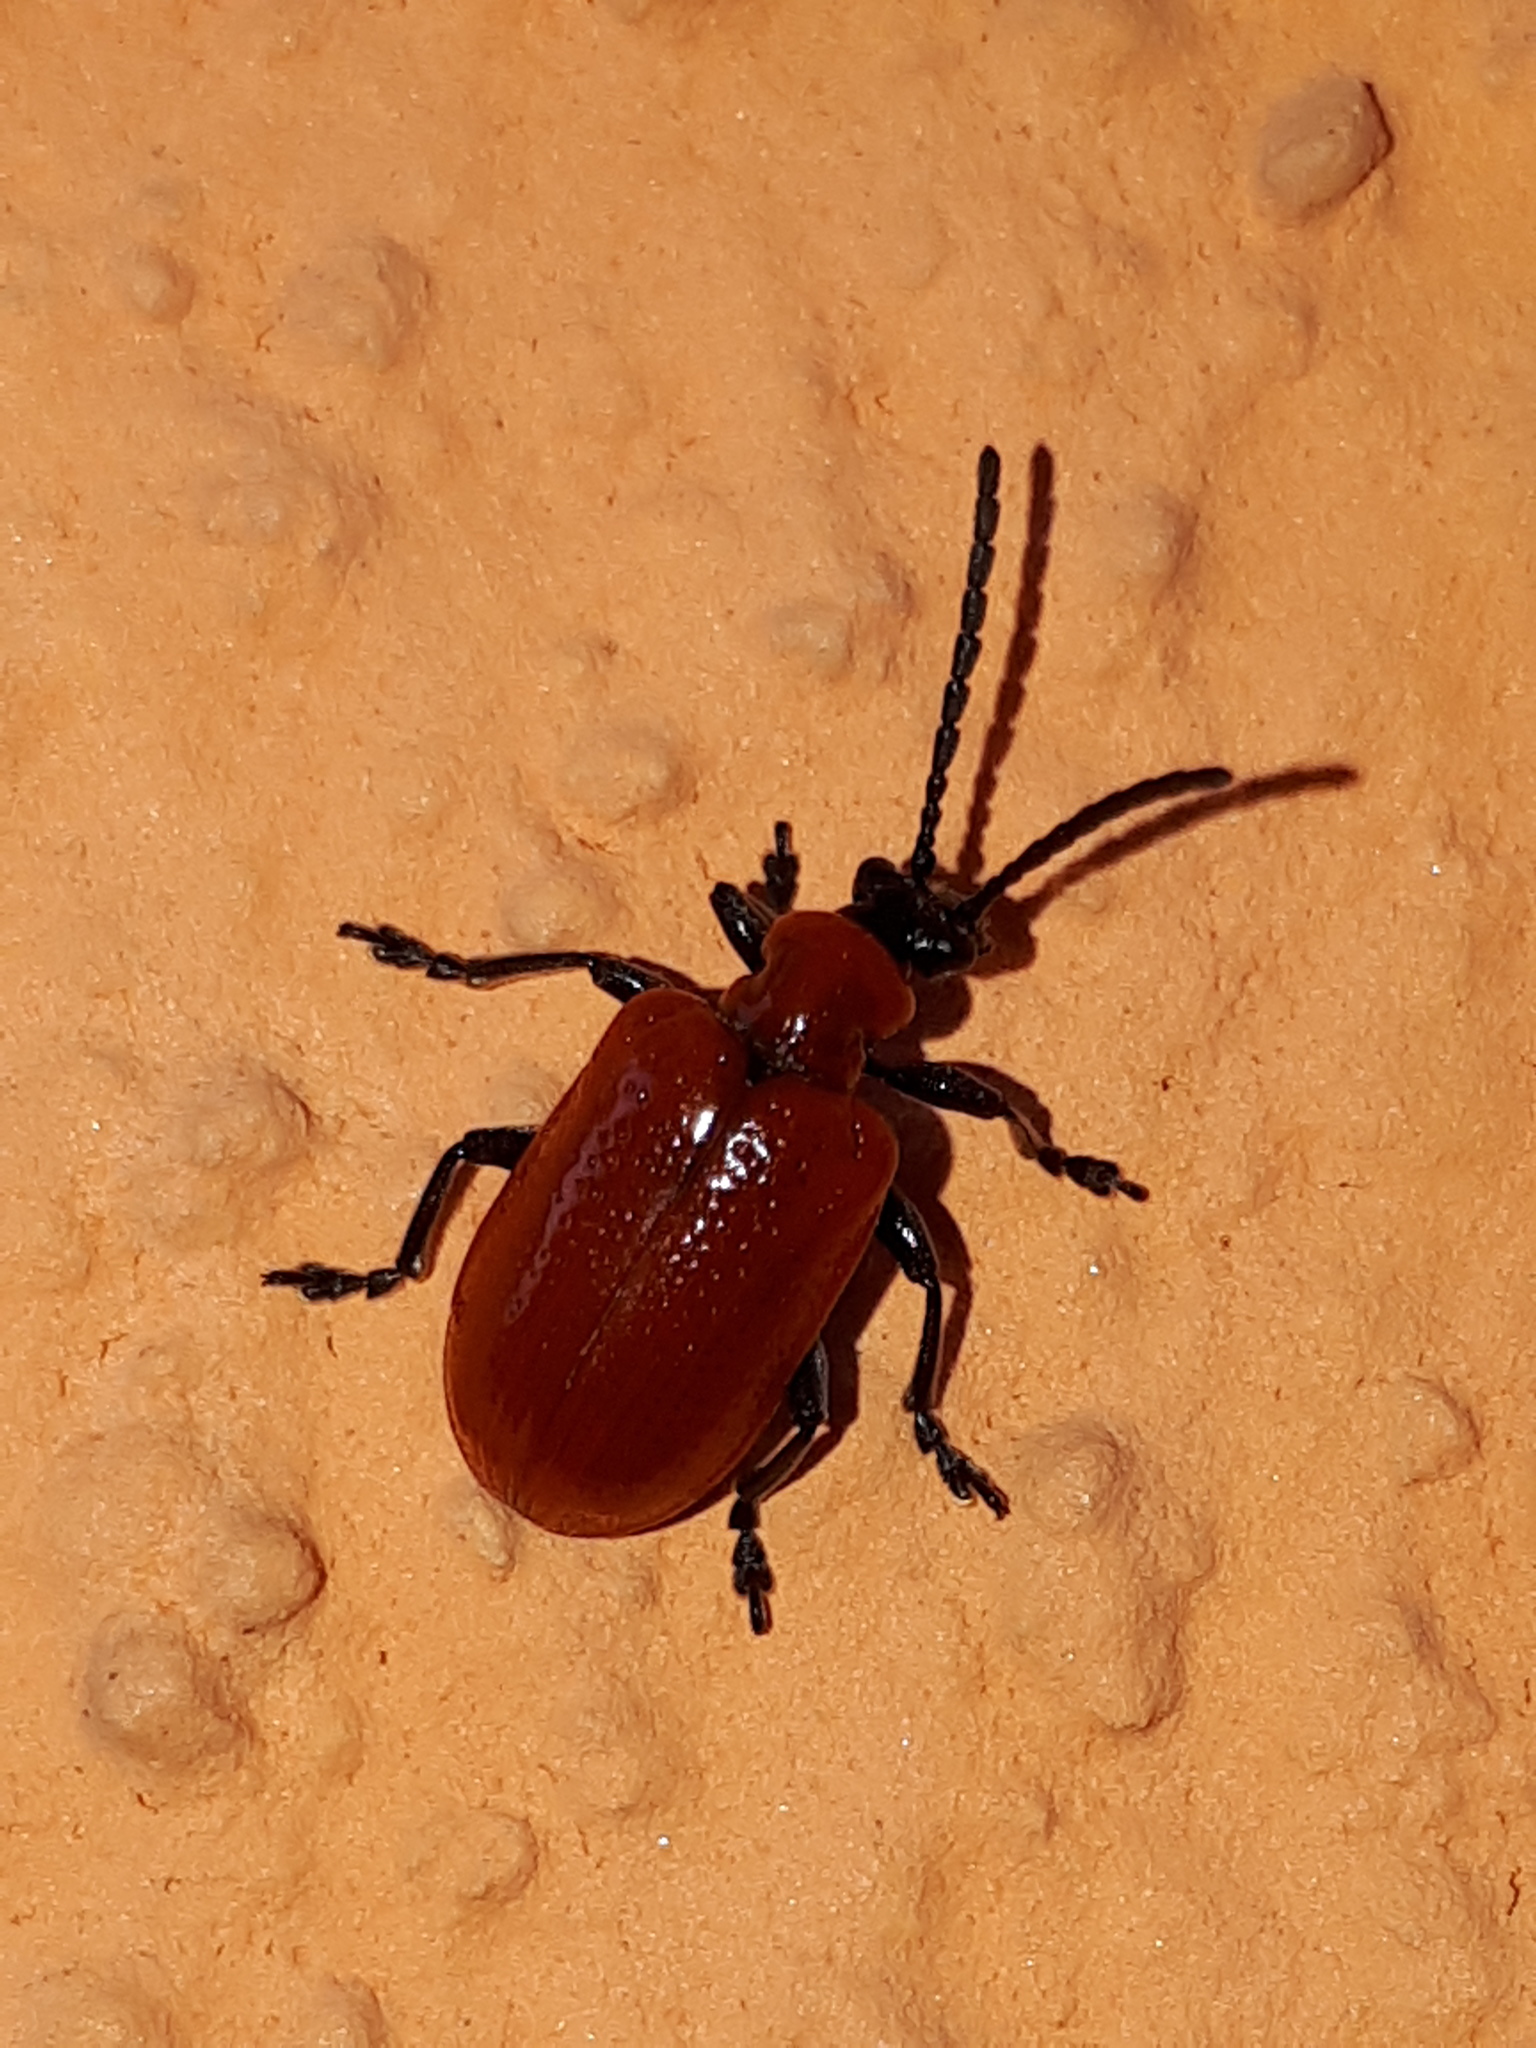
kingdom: Animalia
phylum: Arthropoda
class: Insecta
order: Coleoptera
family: Chrysomelidae
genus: Lilioceris
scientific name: Lilioceris lilii
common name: Lily beetle
